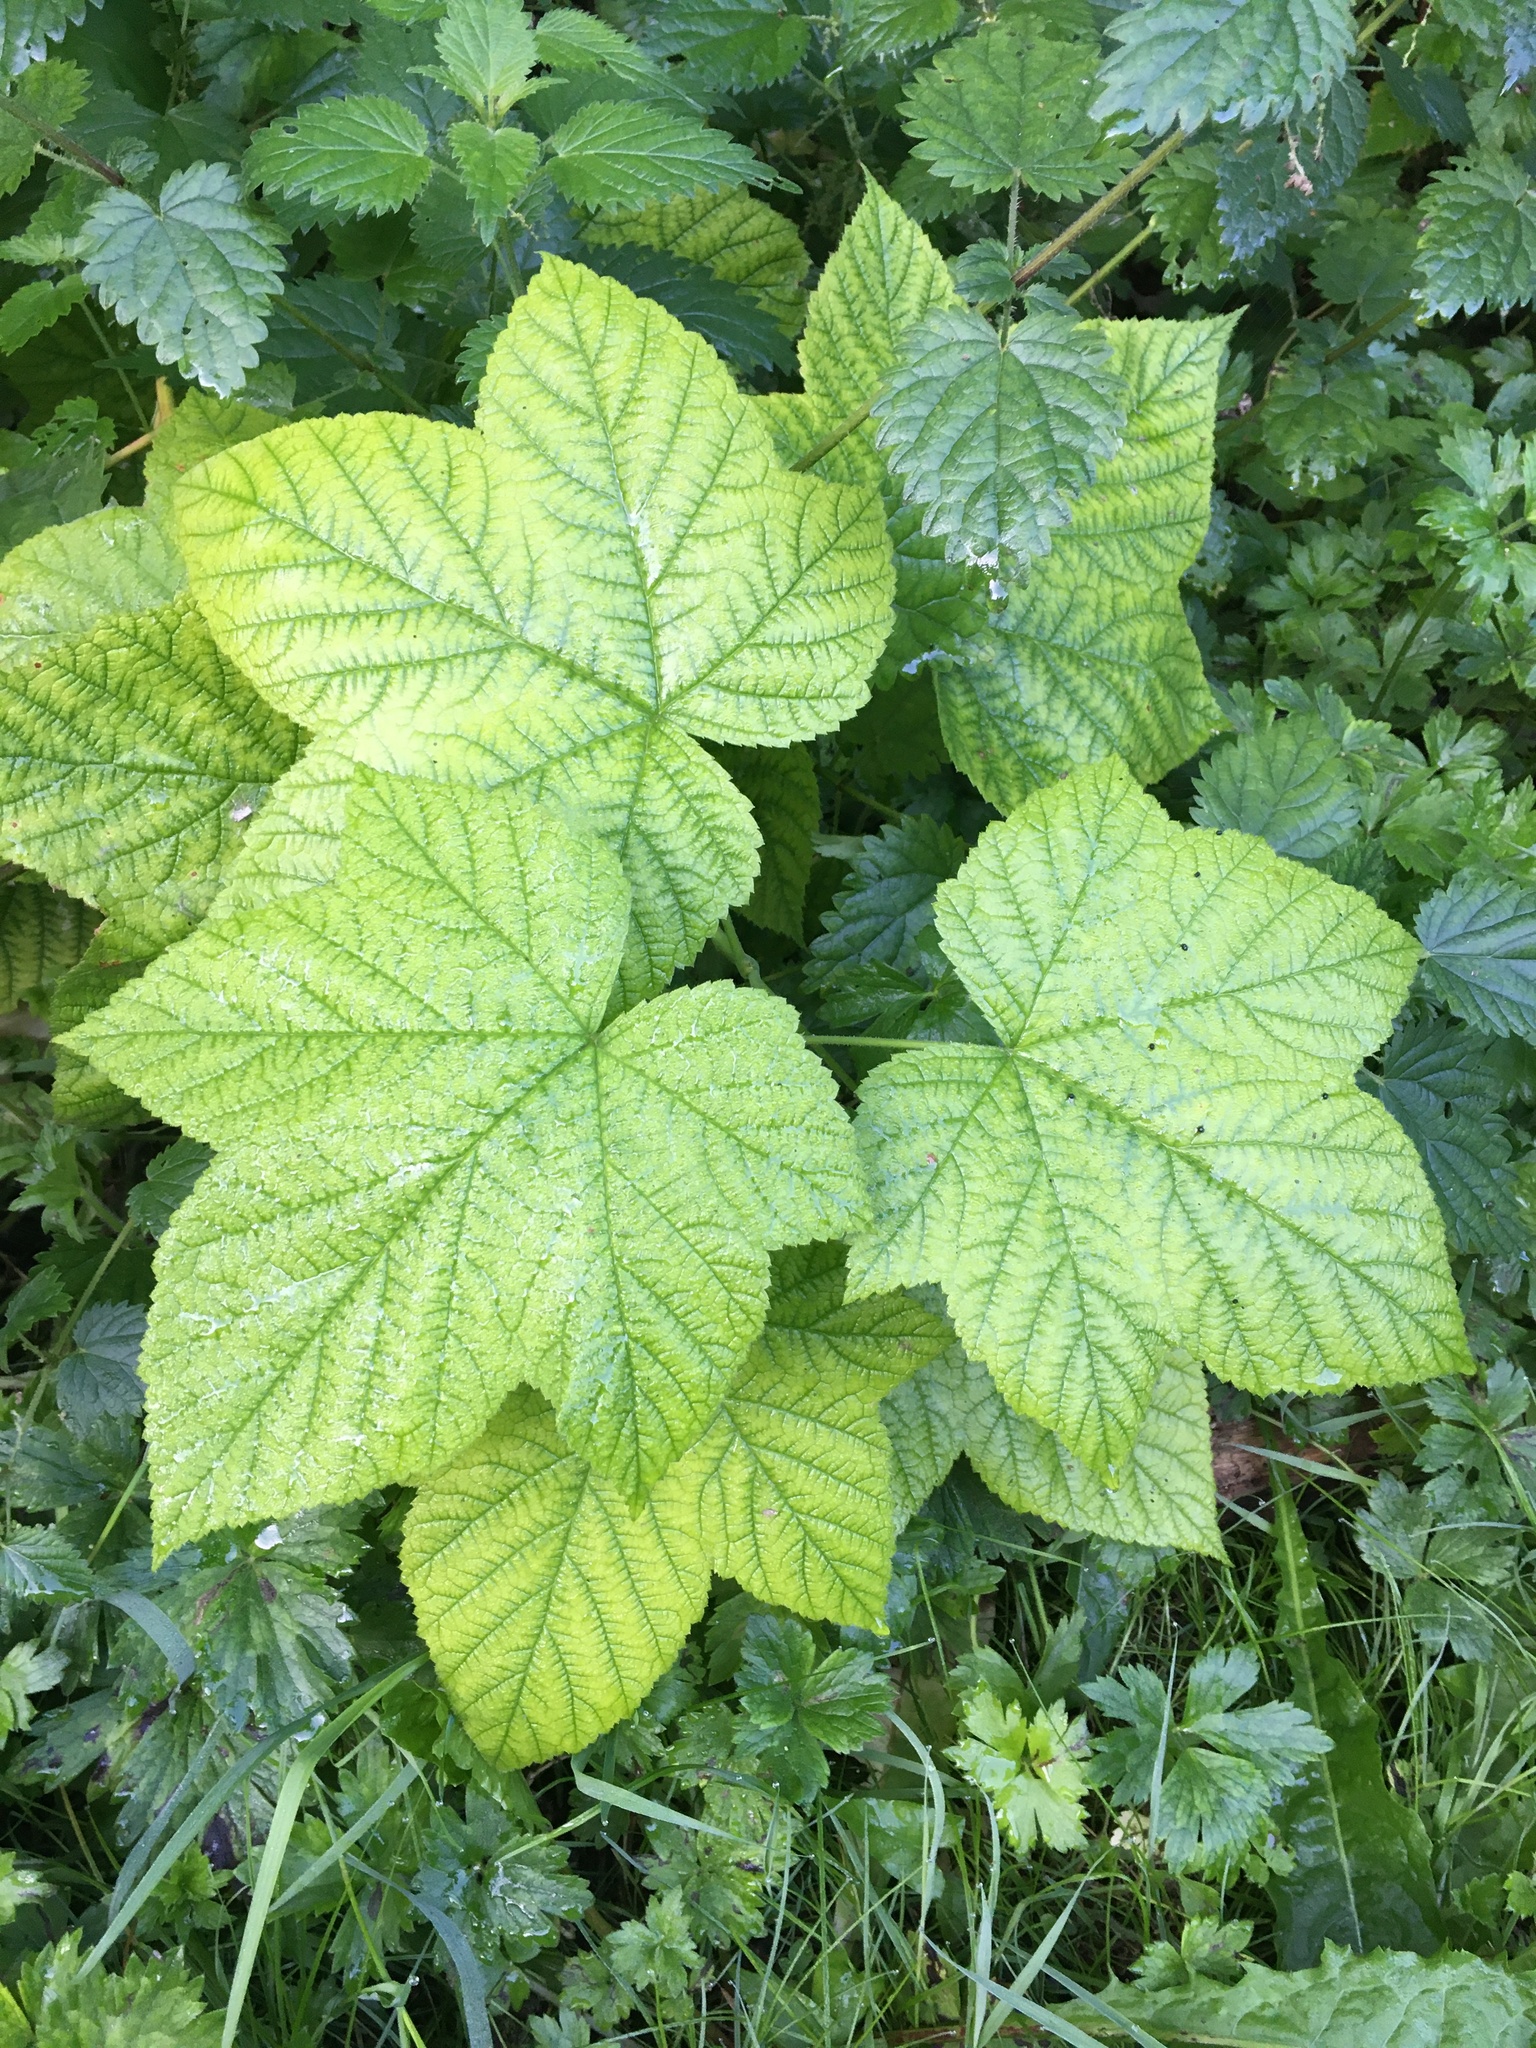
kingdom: Plantae
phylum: Tracheophyta
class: Magnoliopsida
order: Rosales
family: Rosaceae
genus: Rubus
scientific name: Rubus parviflorus
